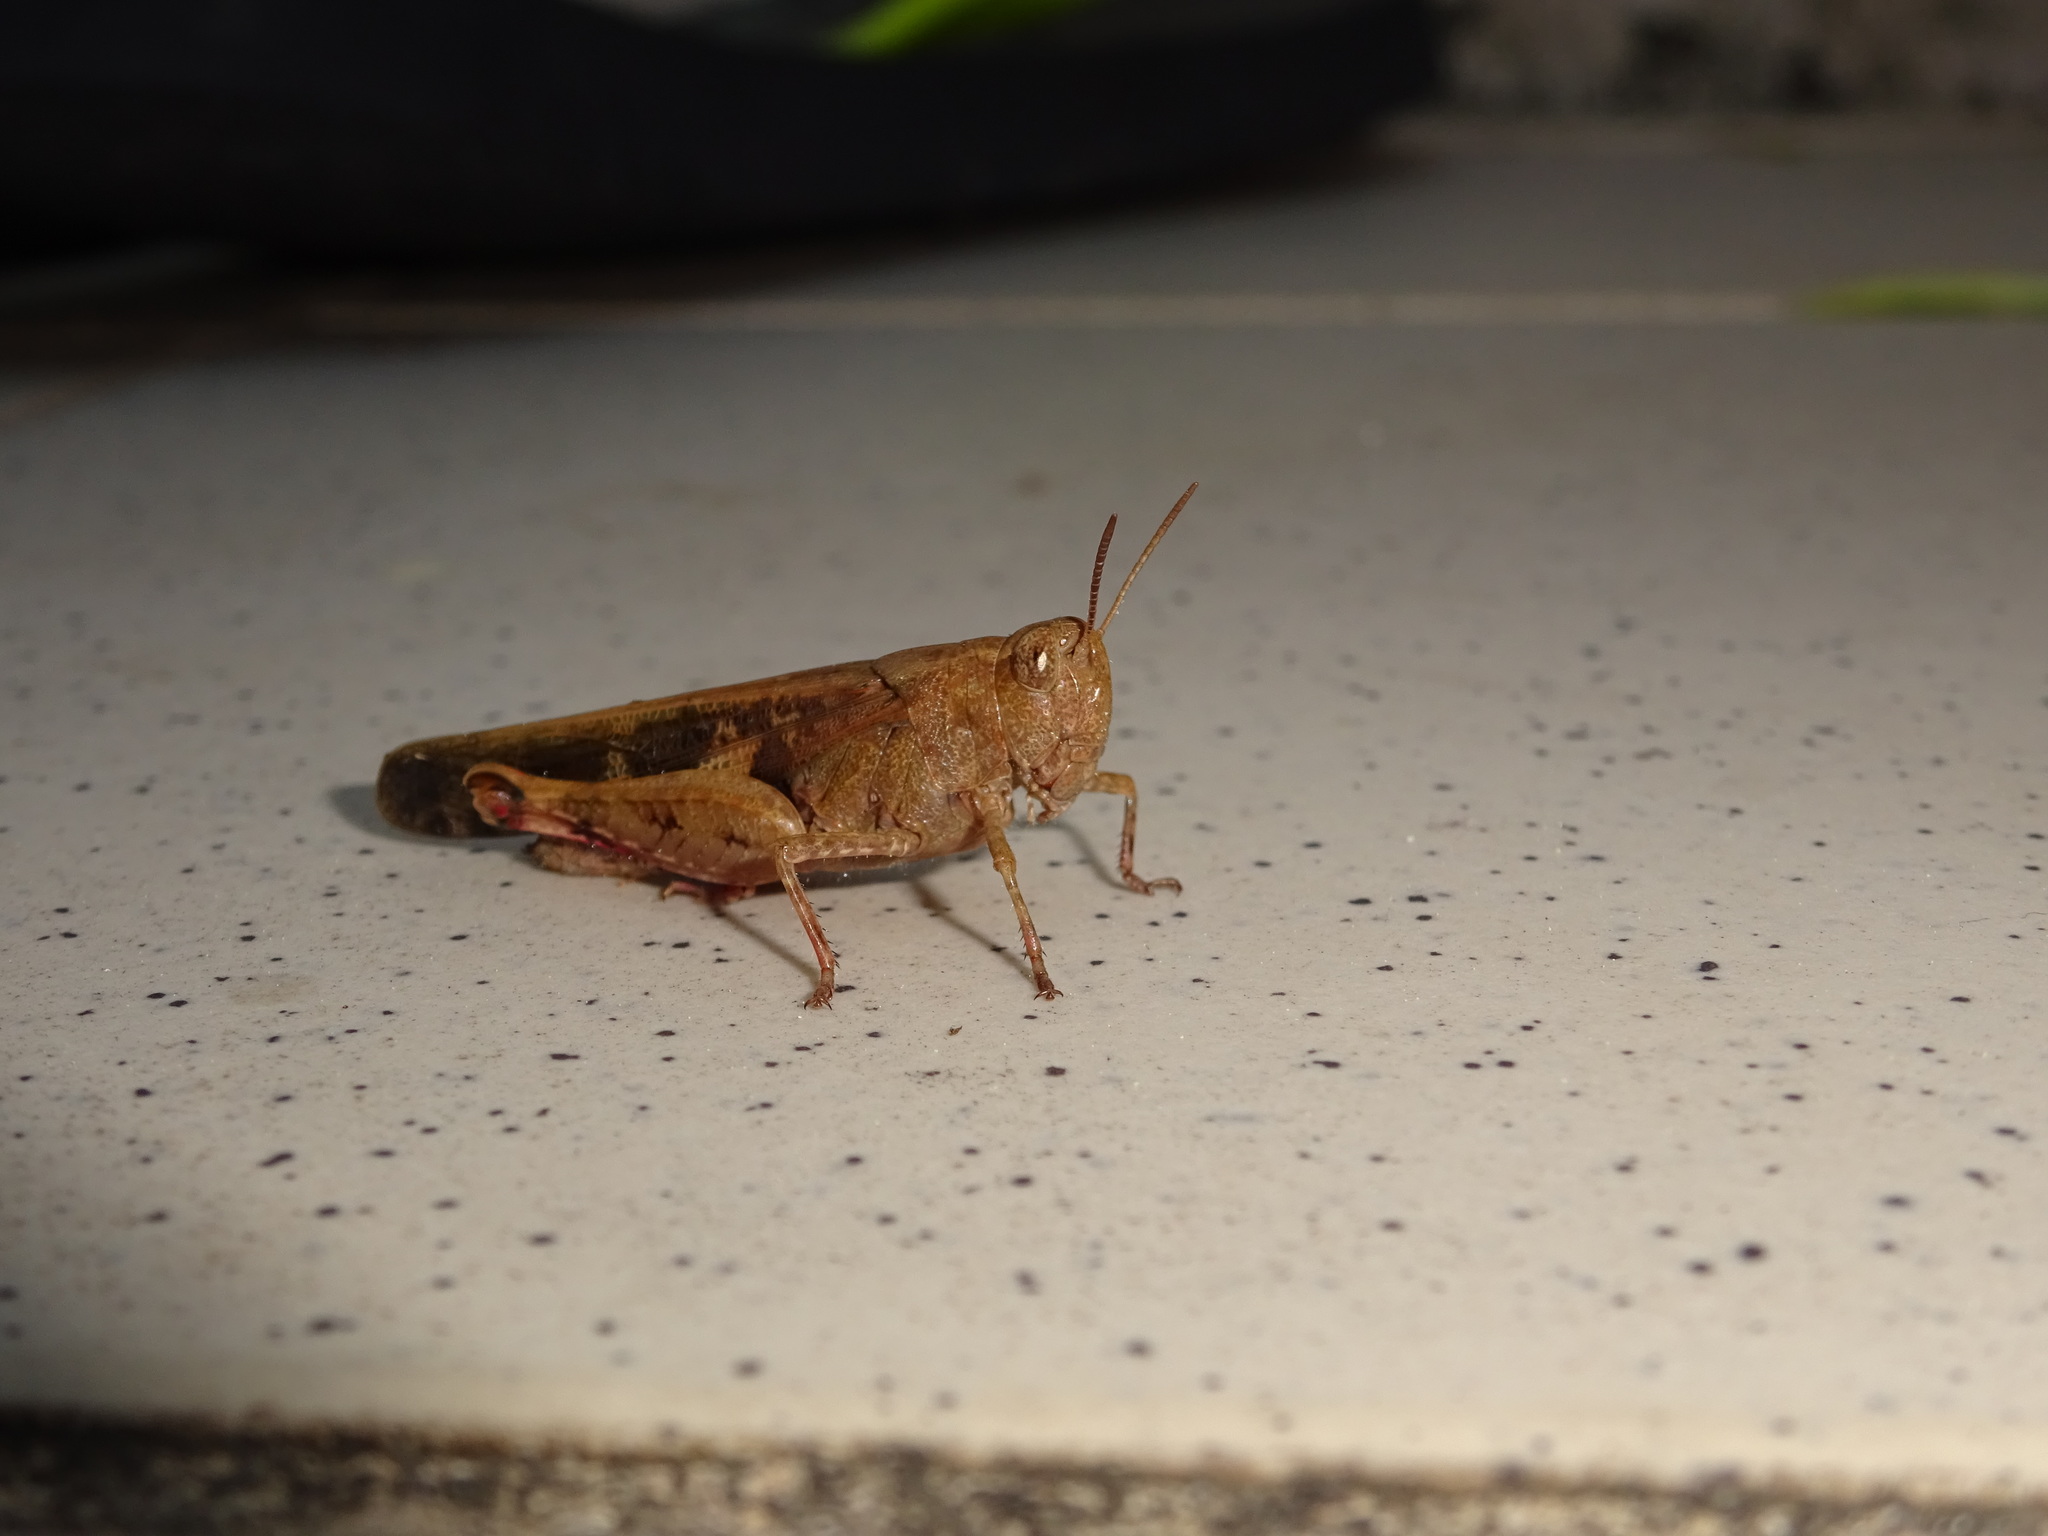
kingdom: Animalia
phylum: Arthropoda
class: Insecta
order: Orthoptera
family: Acrididae
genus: Aiolopus
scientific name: Aiolopus strepens
